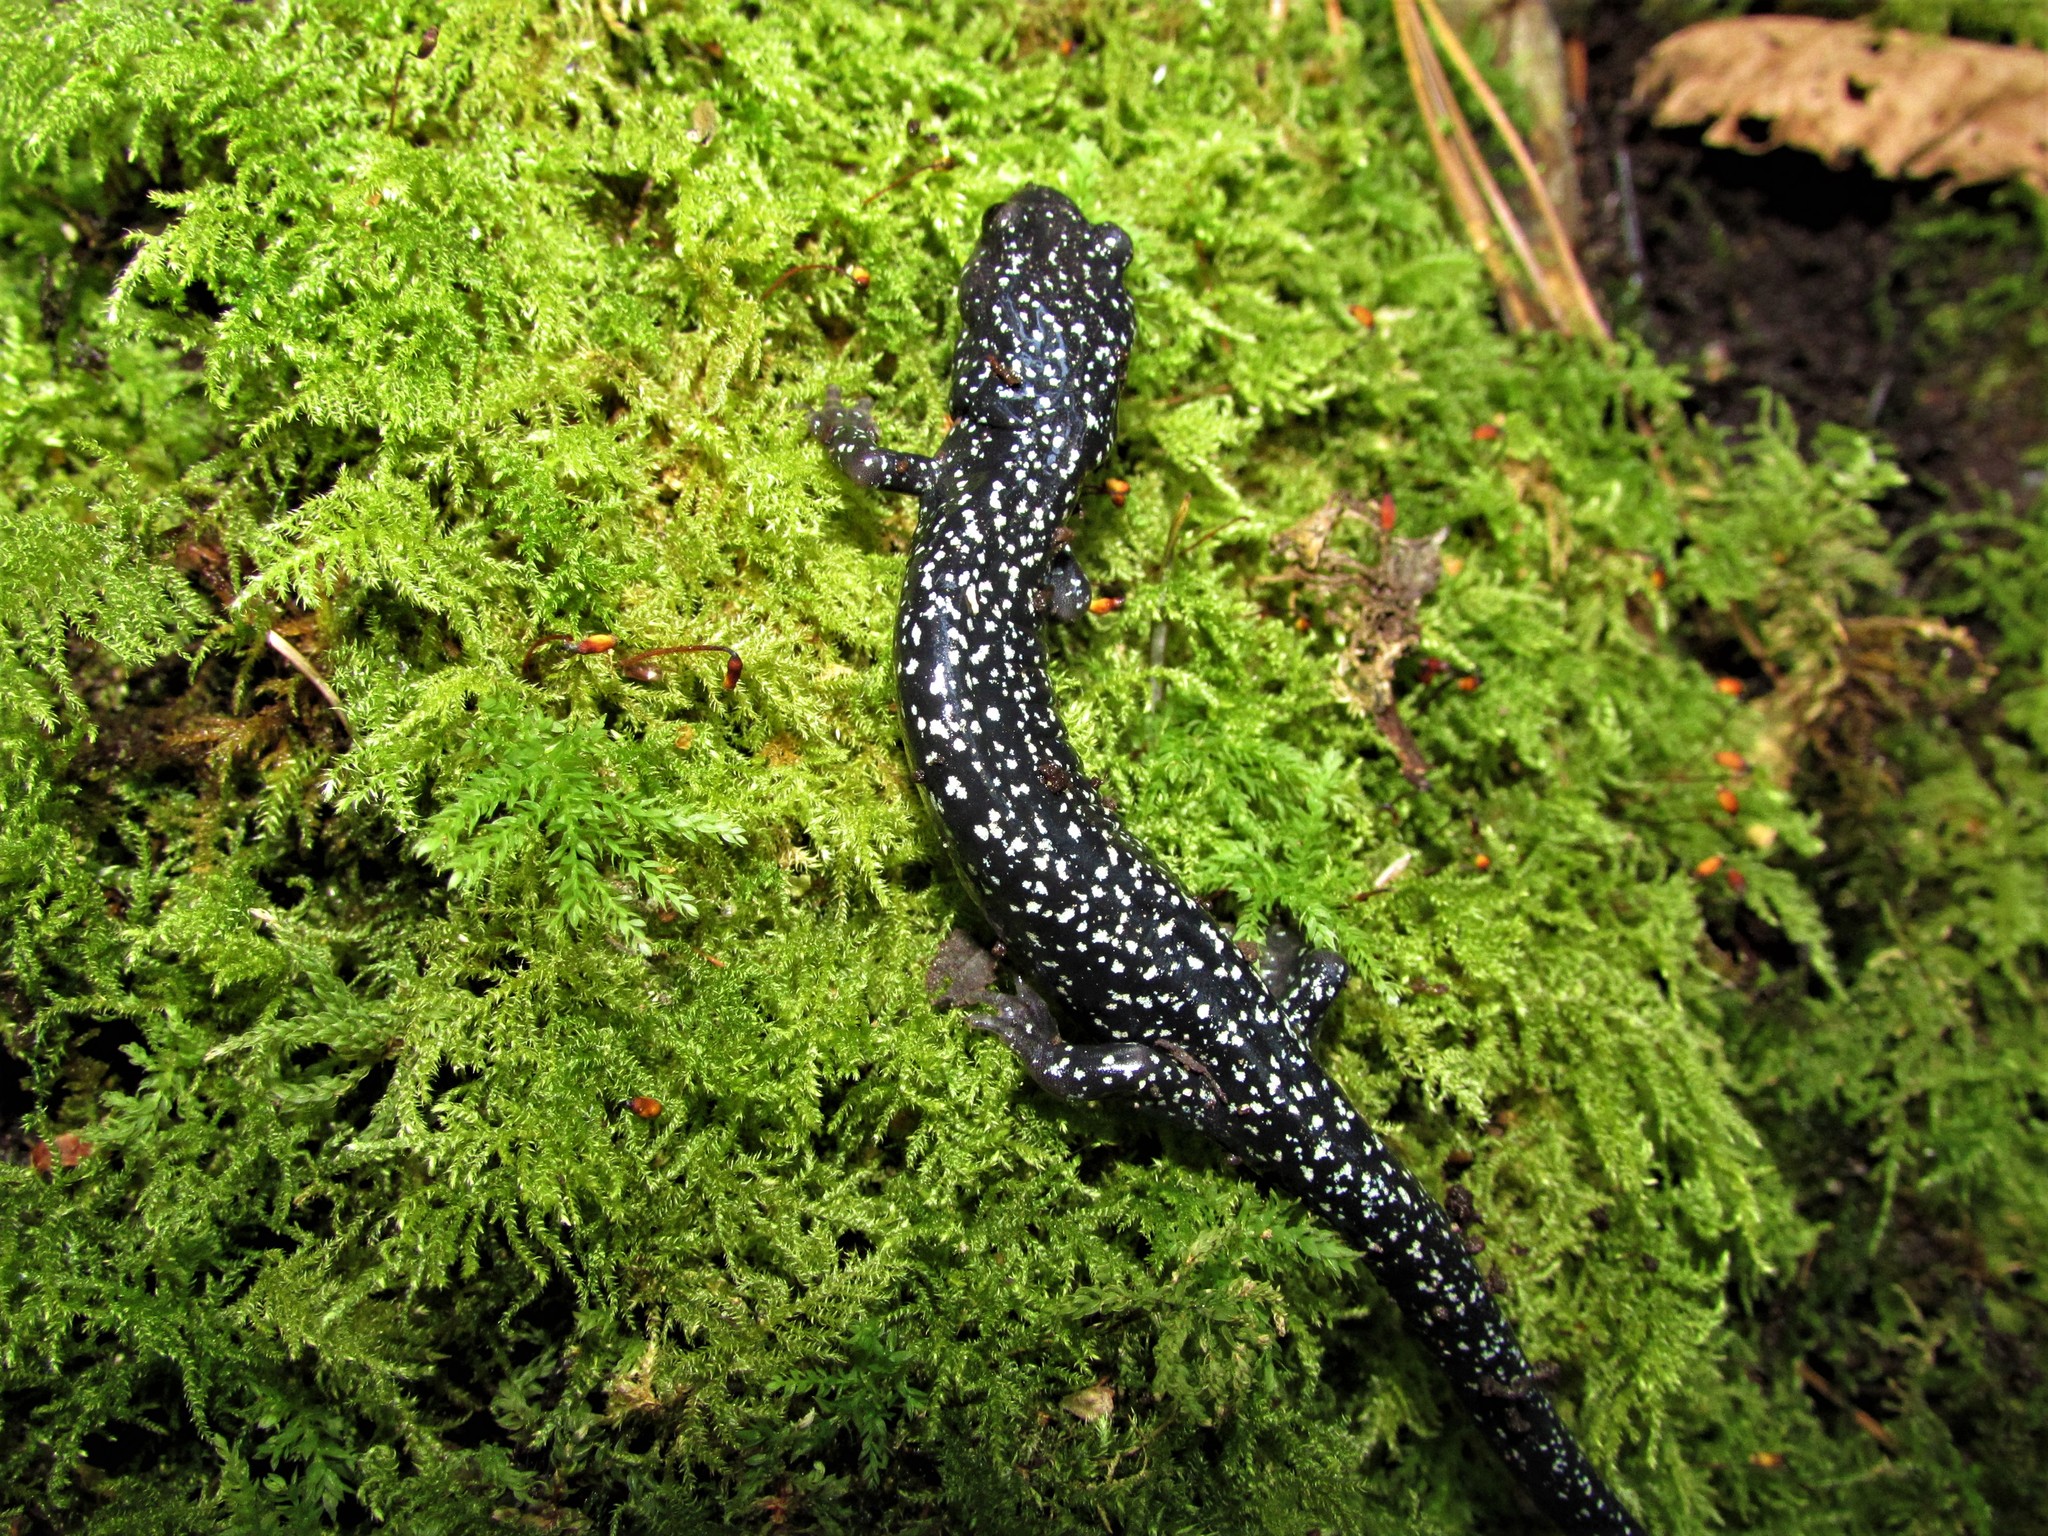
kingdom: Animalia
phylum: Chordata
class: Amphibia
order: Caudata
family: Plethodontidae
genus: Aneides
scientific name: Aneides iecanus
